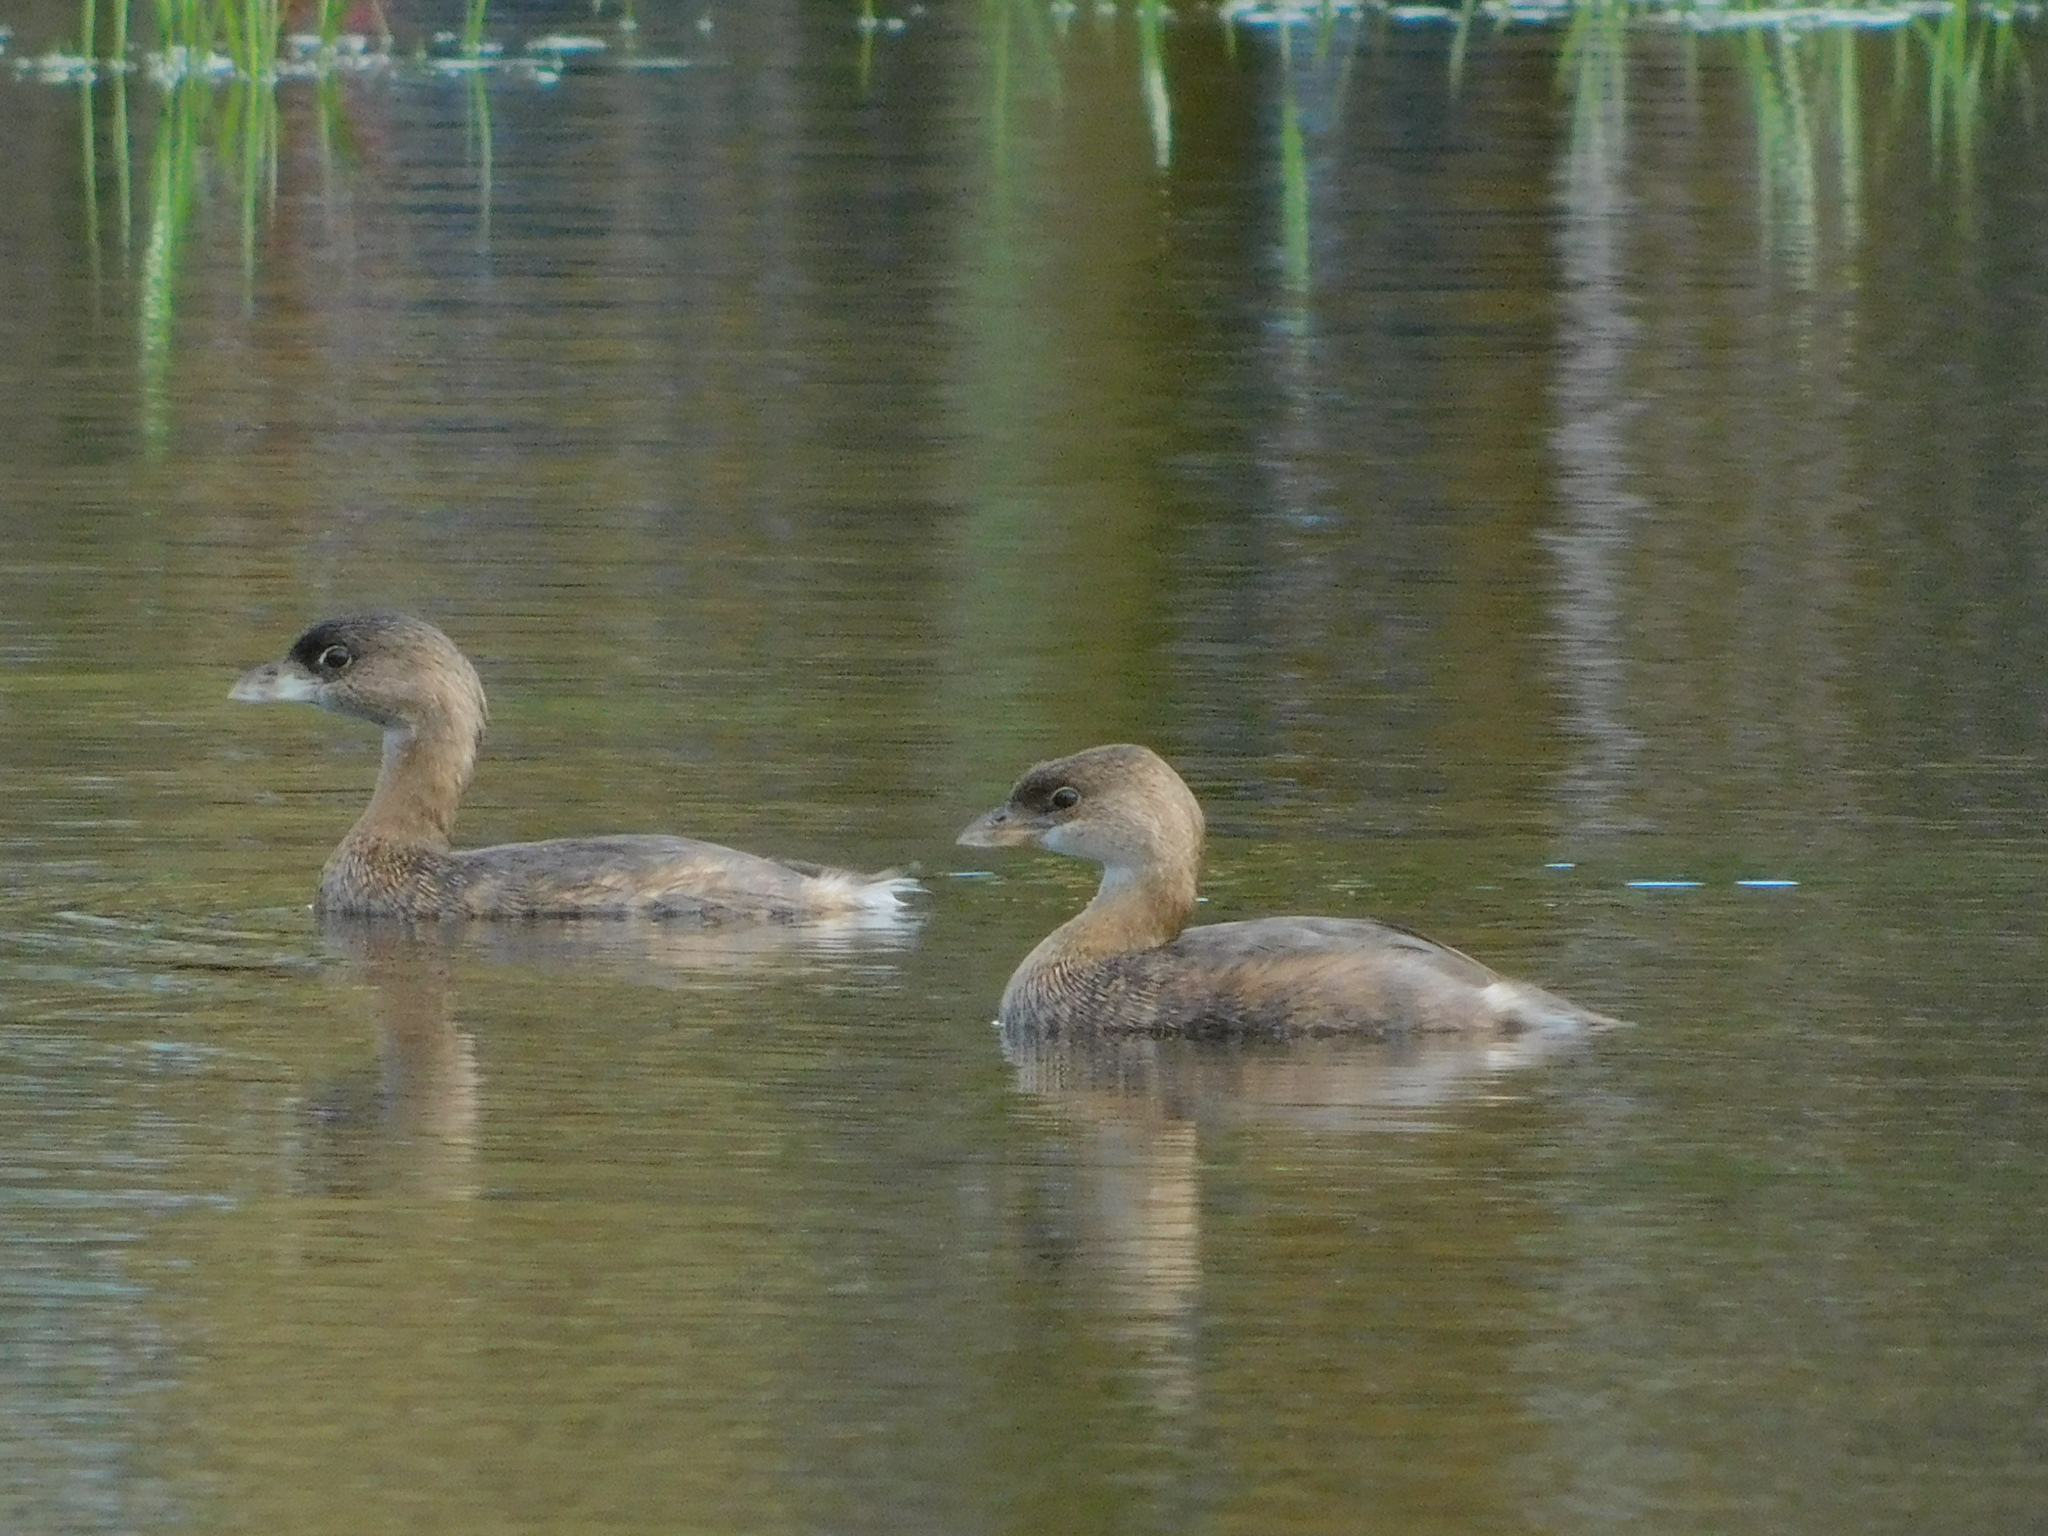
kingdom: Animalia
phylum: Chordata
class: Aves
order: Podicipediformes
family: Podicipedidae
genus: Podilymbus
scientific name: Podilymbus podiceps
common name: Pied-billed grebe
